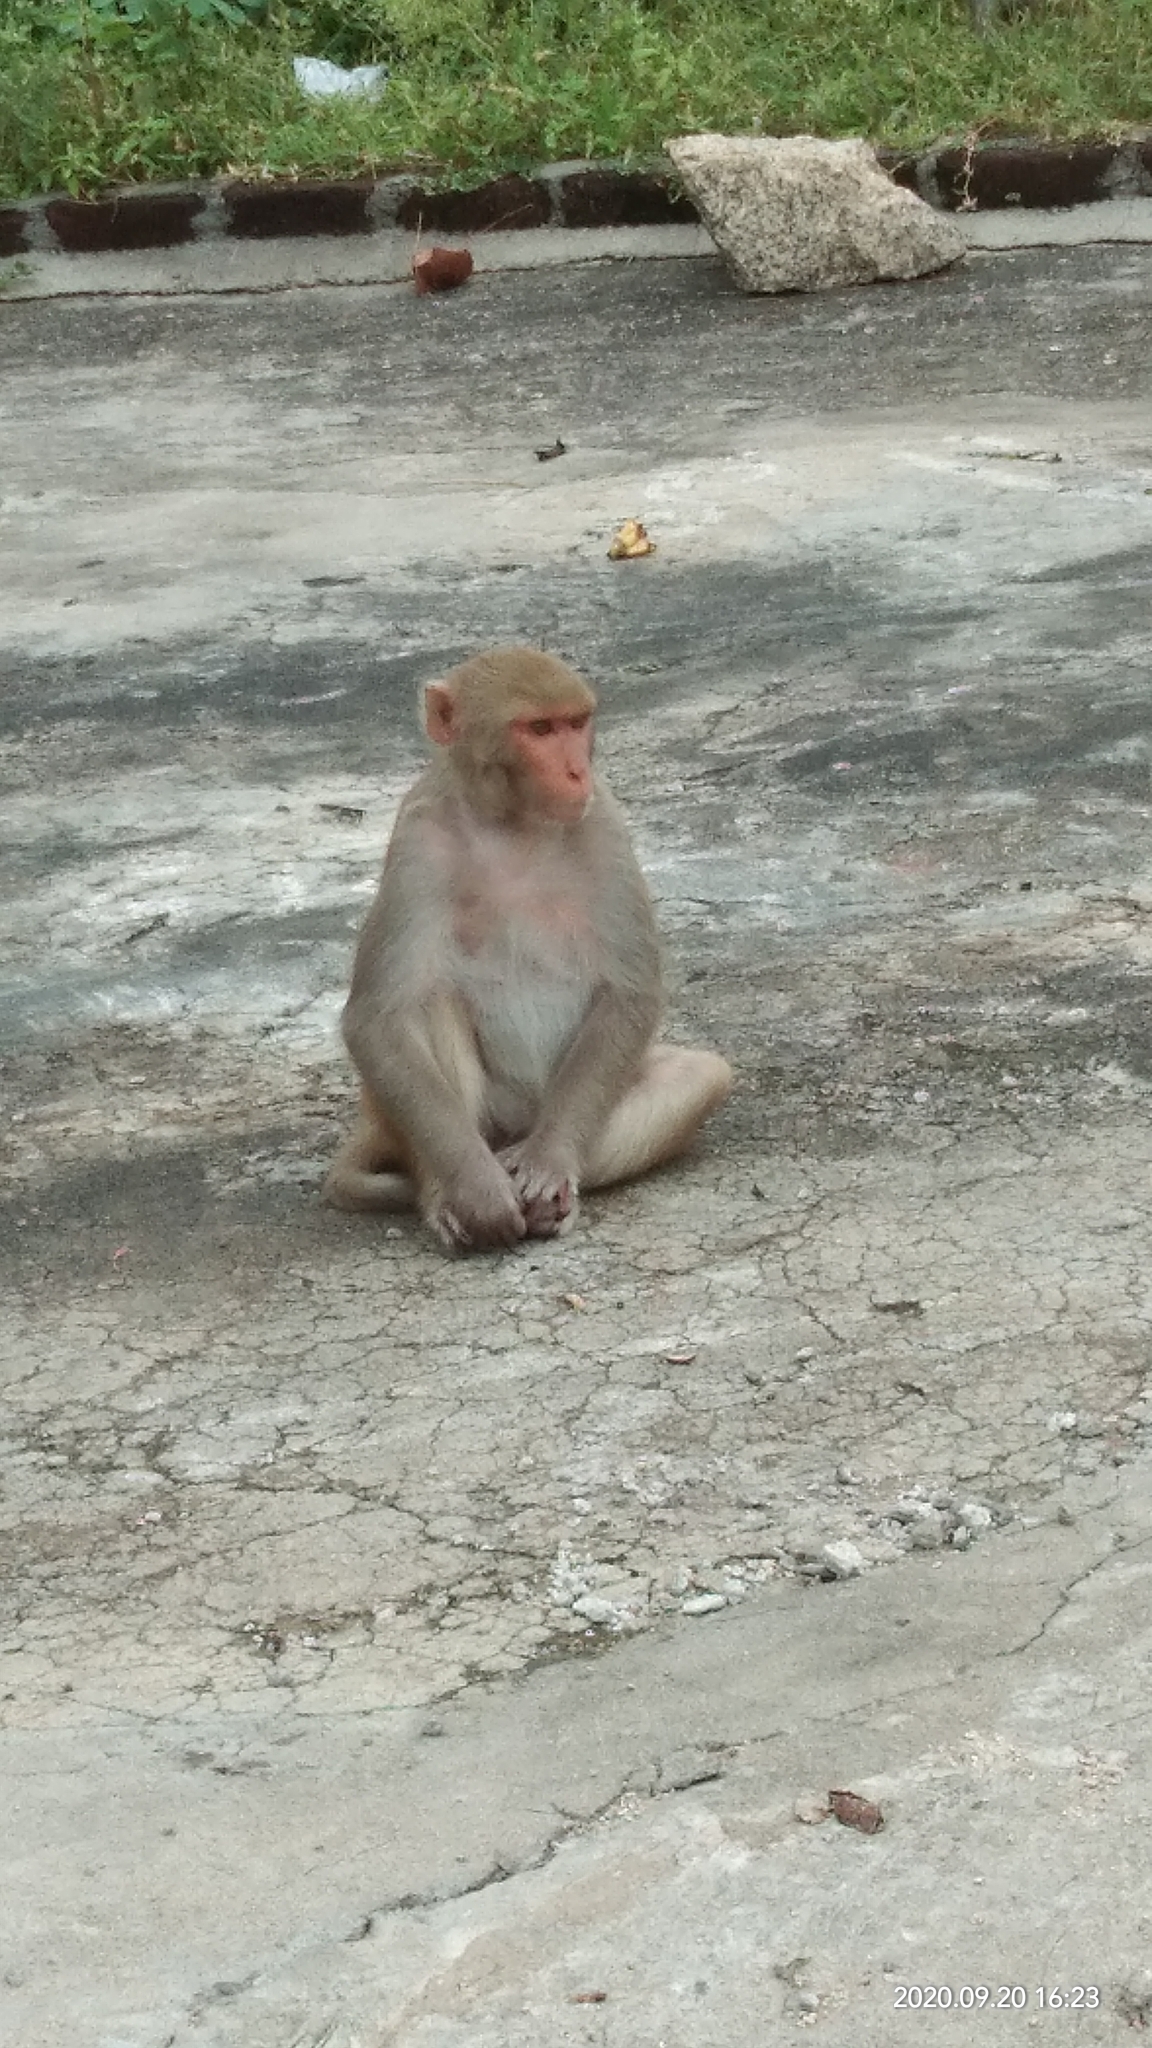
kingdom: Animalia
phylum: Chordata
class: Mammalia
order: Primates
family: Cercopithecidae
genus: Macaca
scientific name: Macaca mulatta
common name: Rhesus monkey
